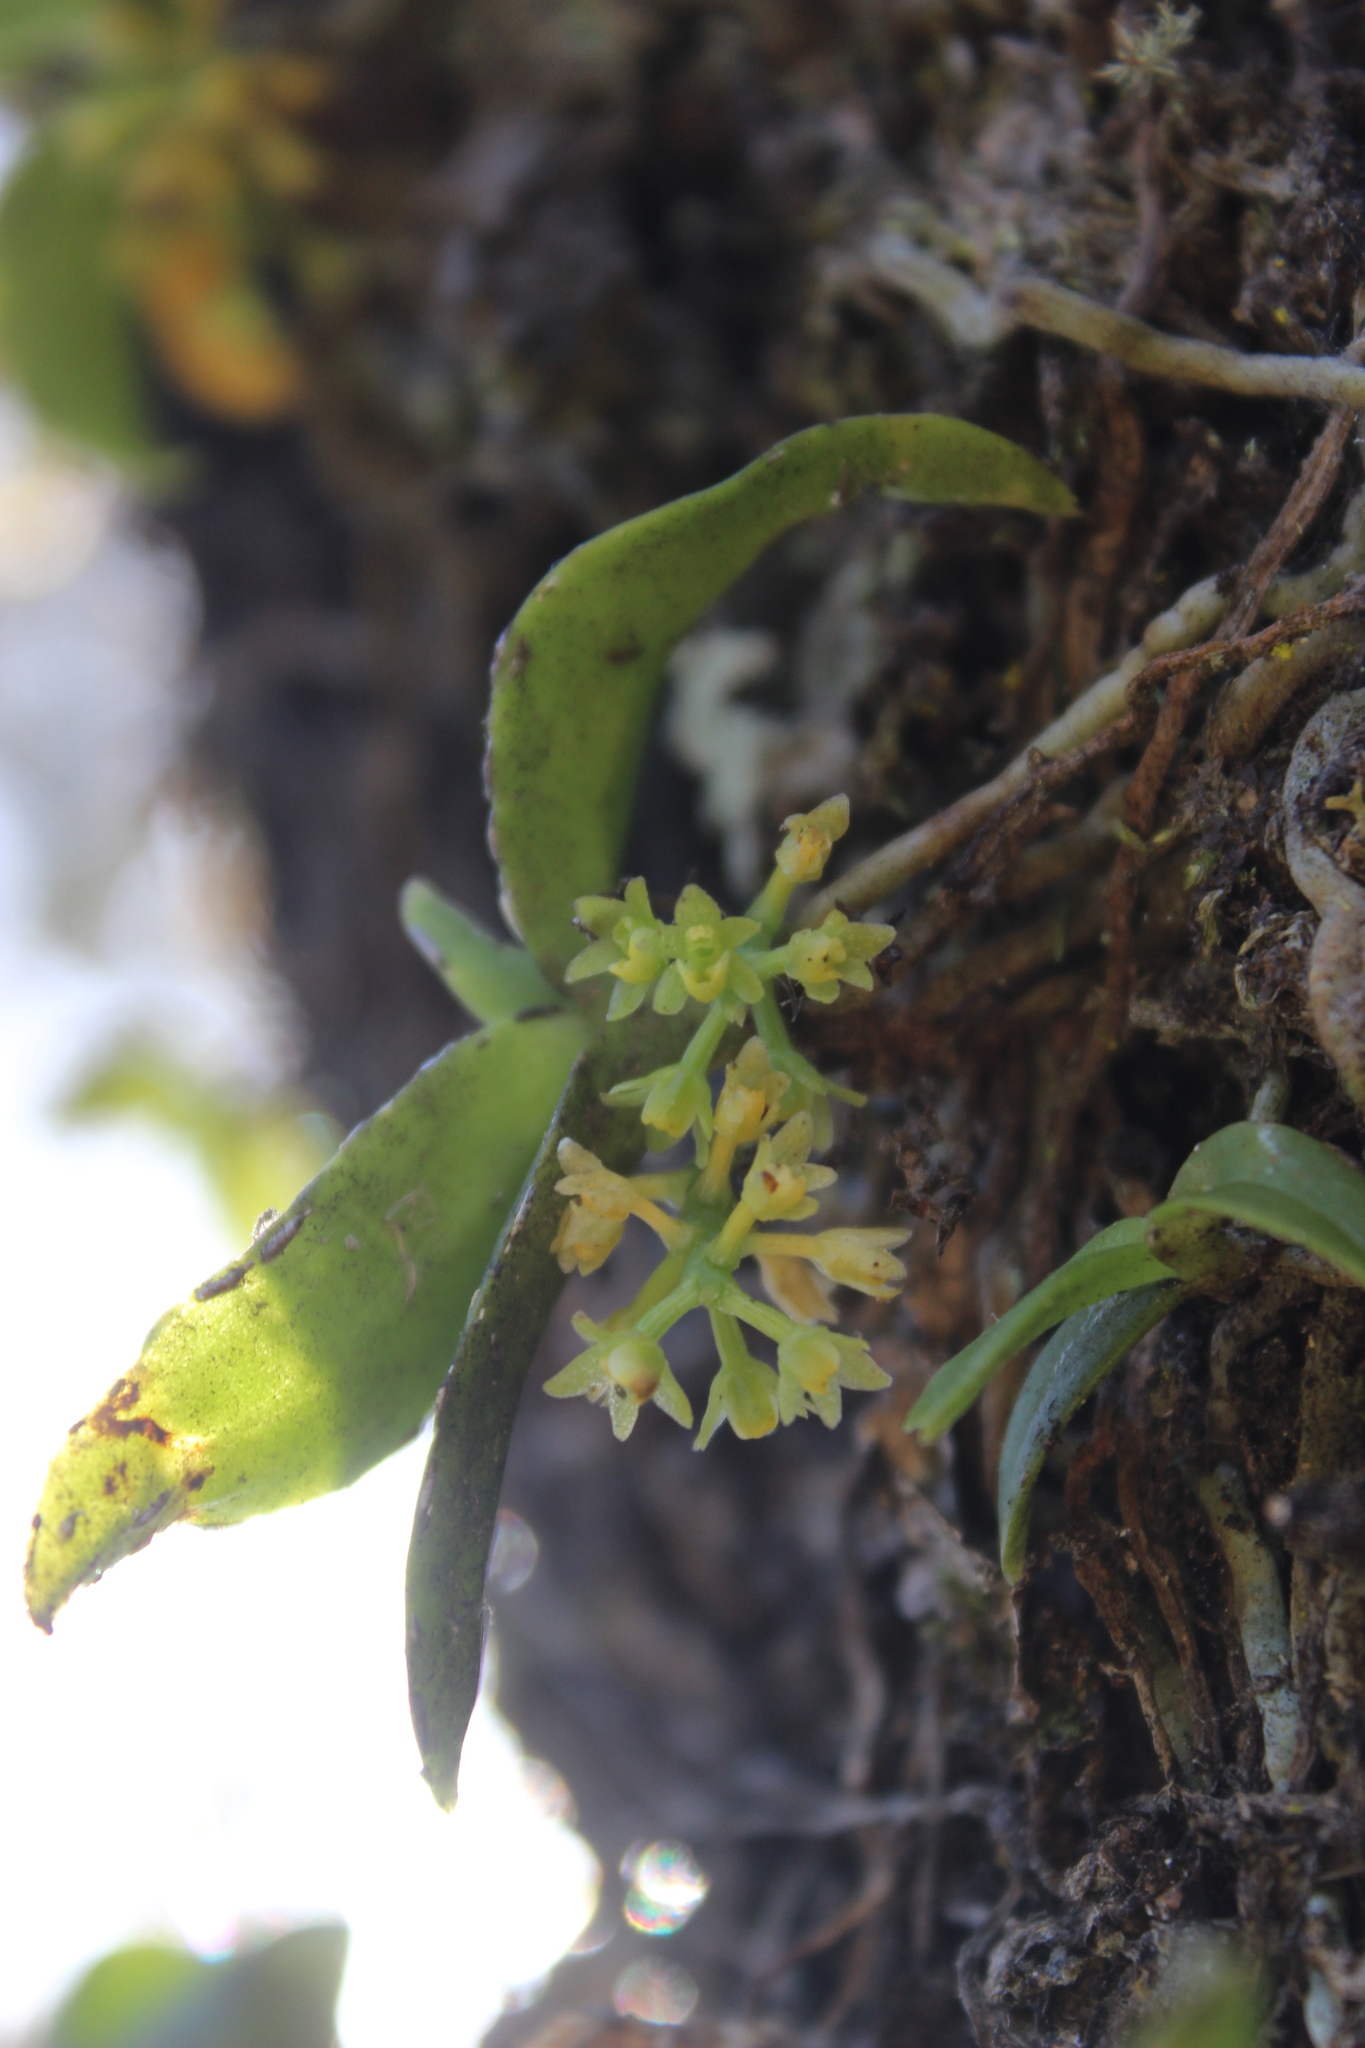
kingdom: Plantae
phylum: Tracheophyta
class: Liliopsida
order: Asparagales
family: Orchidaceae
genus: Drymoanthus
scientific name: Drymoanthus flavus
